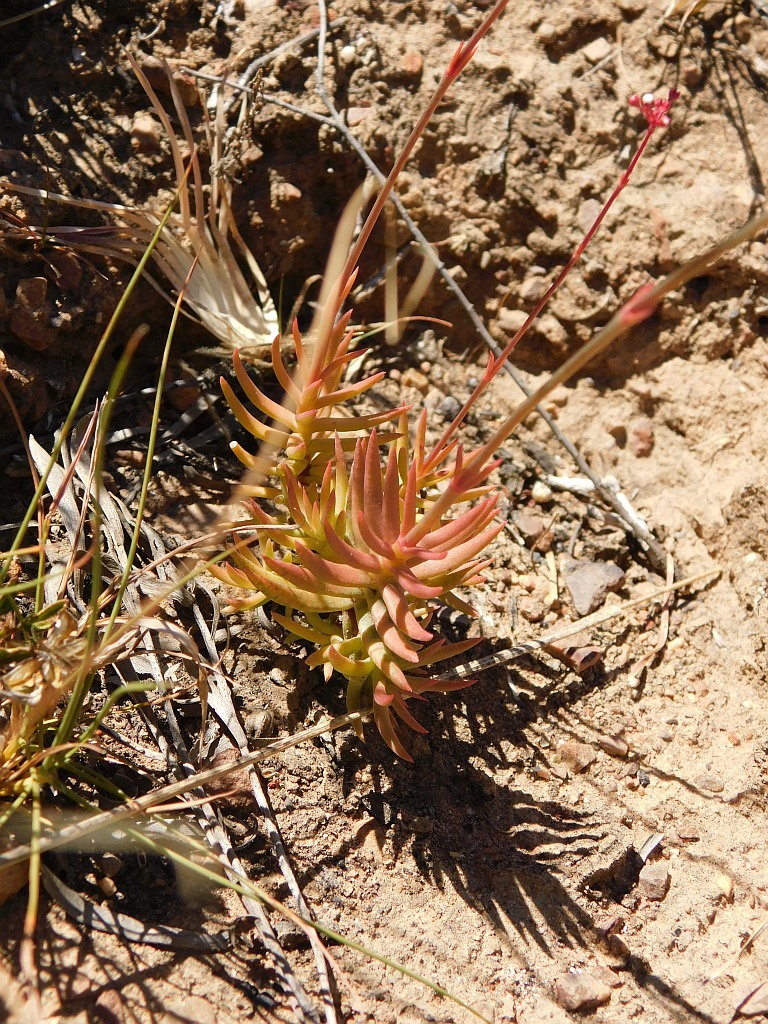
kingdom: Plantae
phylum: Tracheophyta
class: Magnoliopsida
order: Saxifragales
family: Crassulaceae
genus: Crassula
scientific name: Crassula tetragona
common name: Pygmyweed
